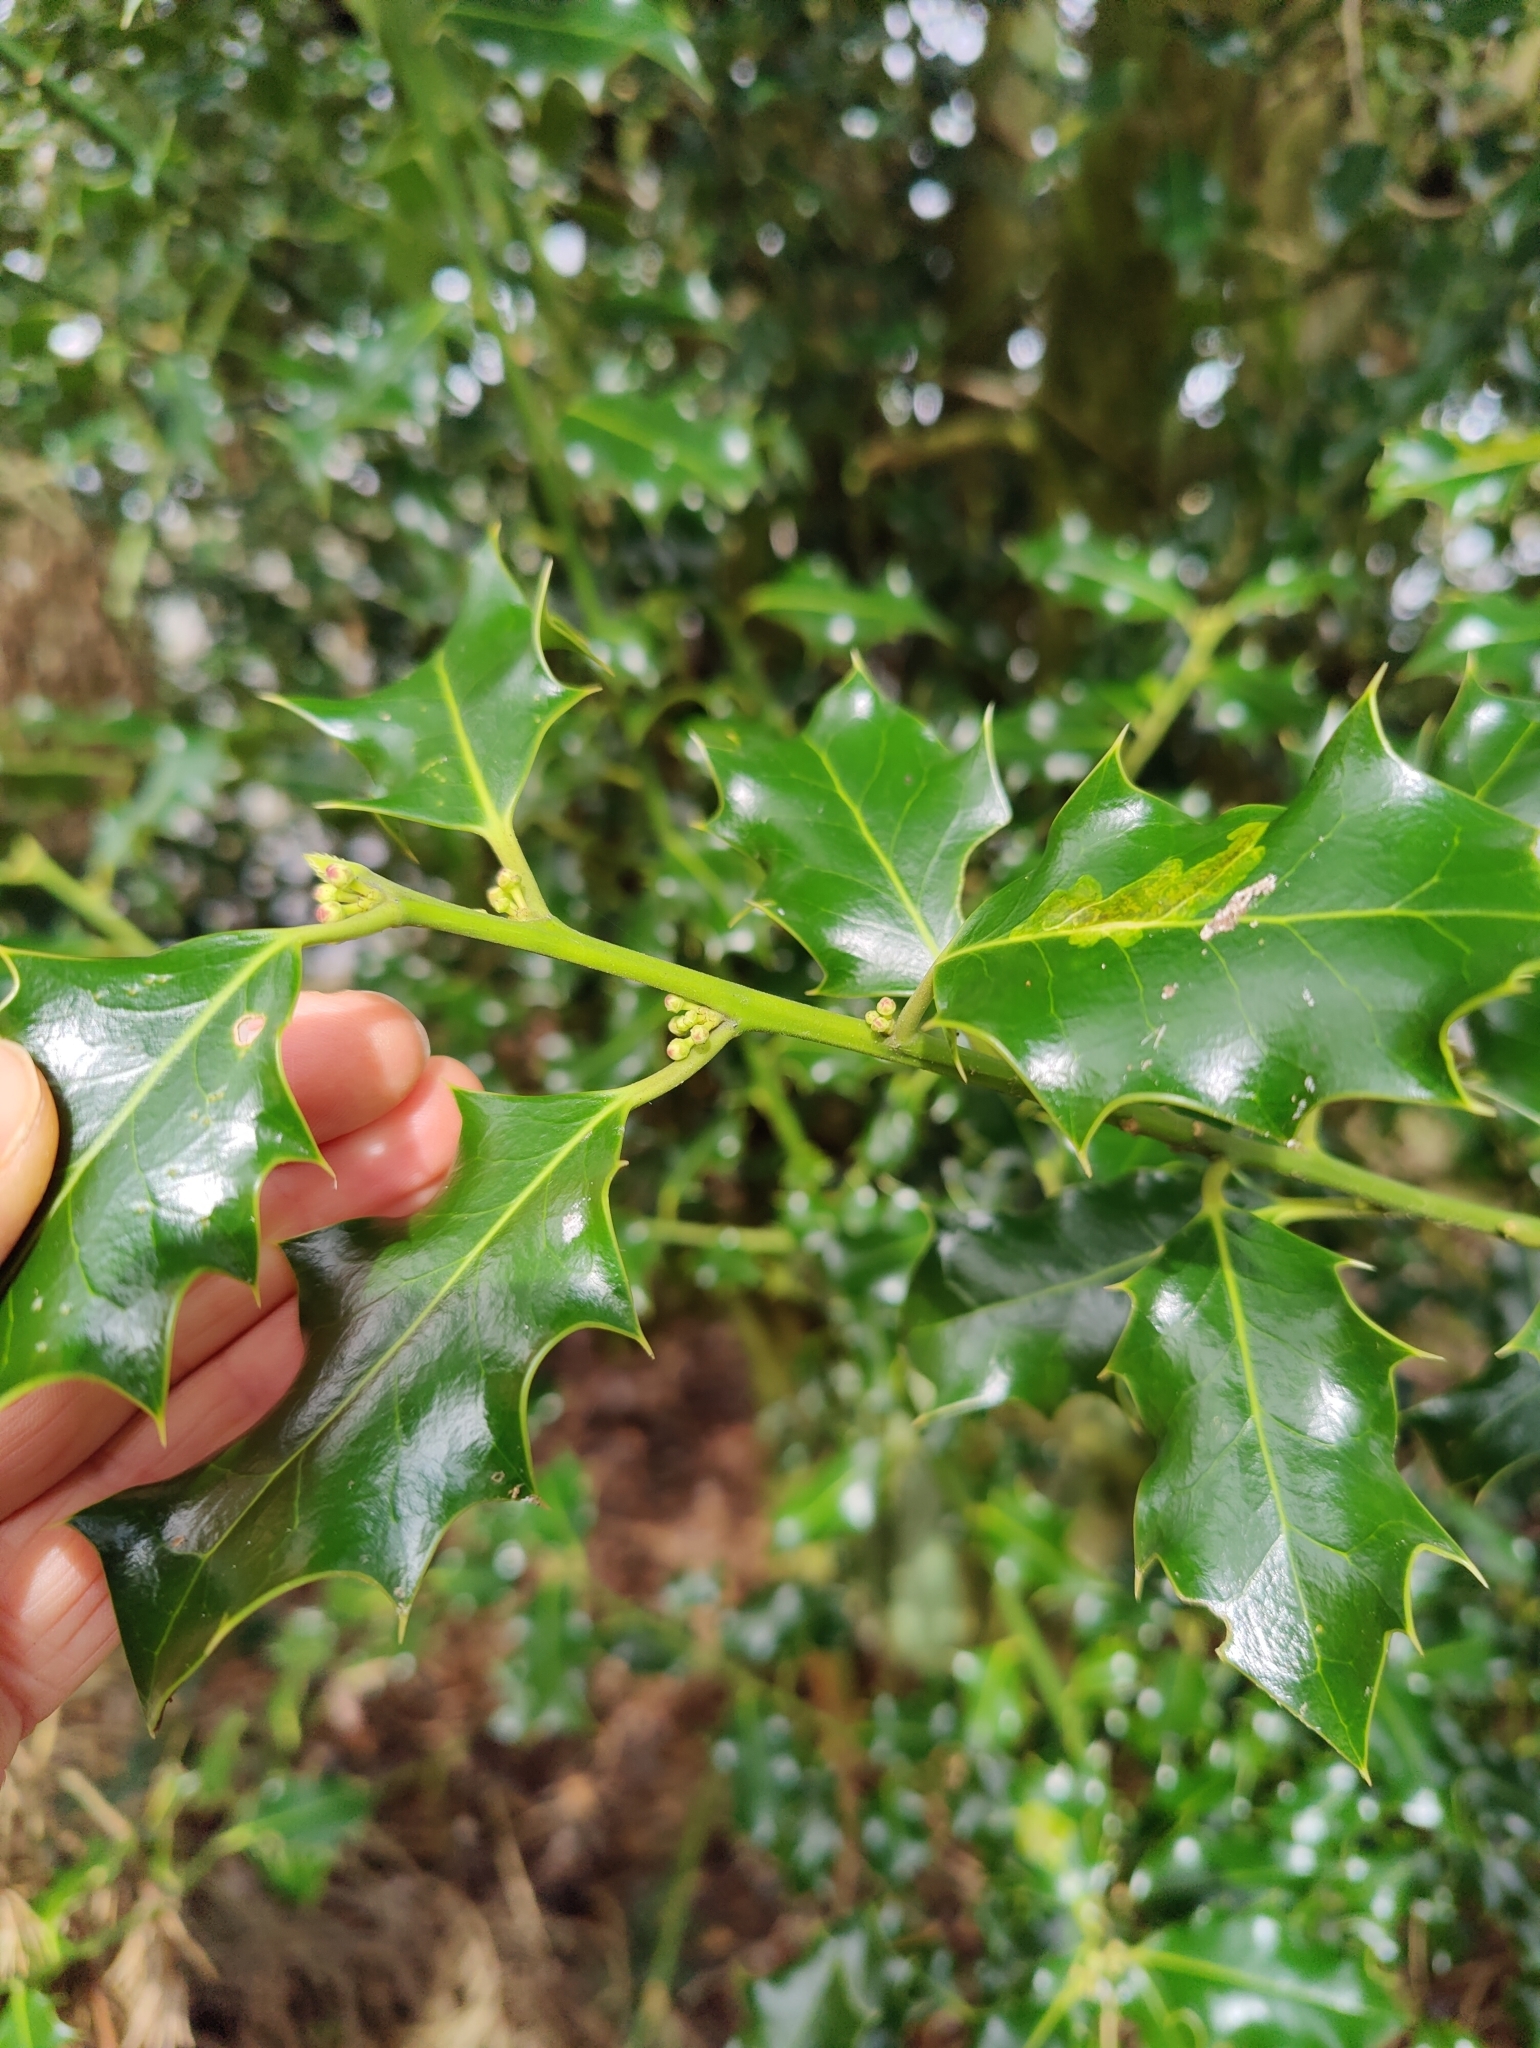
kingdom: Plantae
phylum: Tracheophyta
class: Magnoliopsida
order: Aquifoliales
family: Aquifoliaceae
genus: Ilex
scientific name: Ilex aquifolium
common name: English holly
